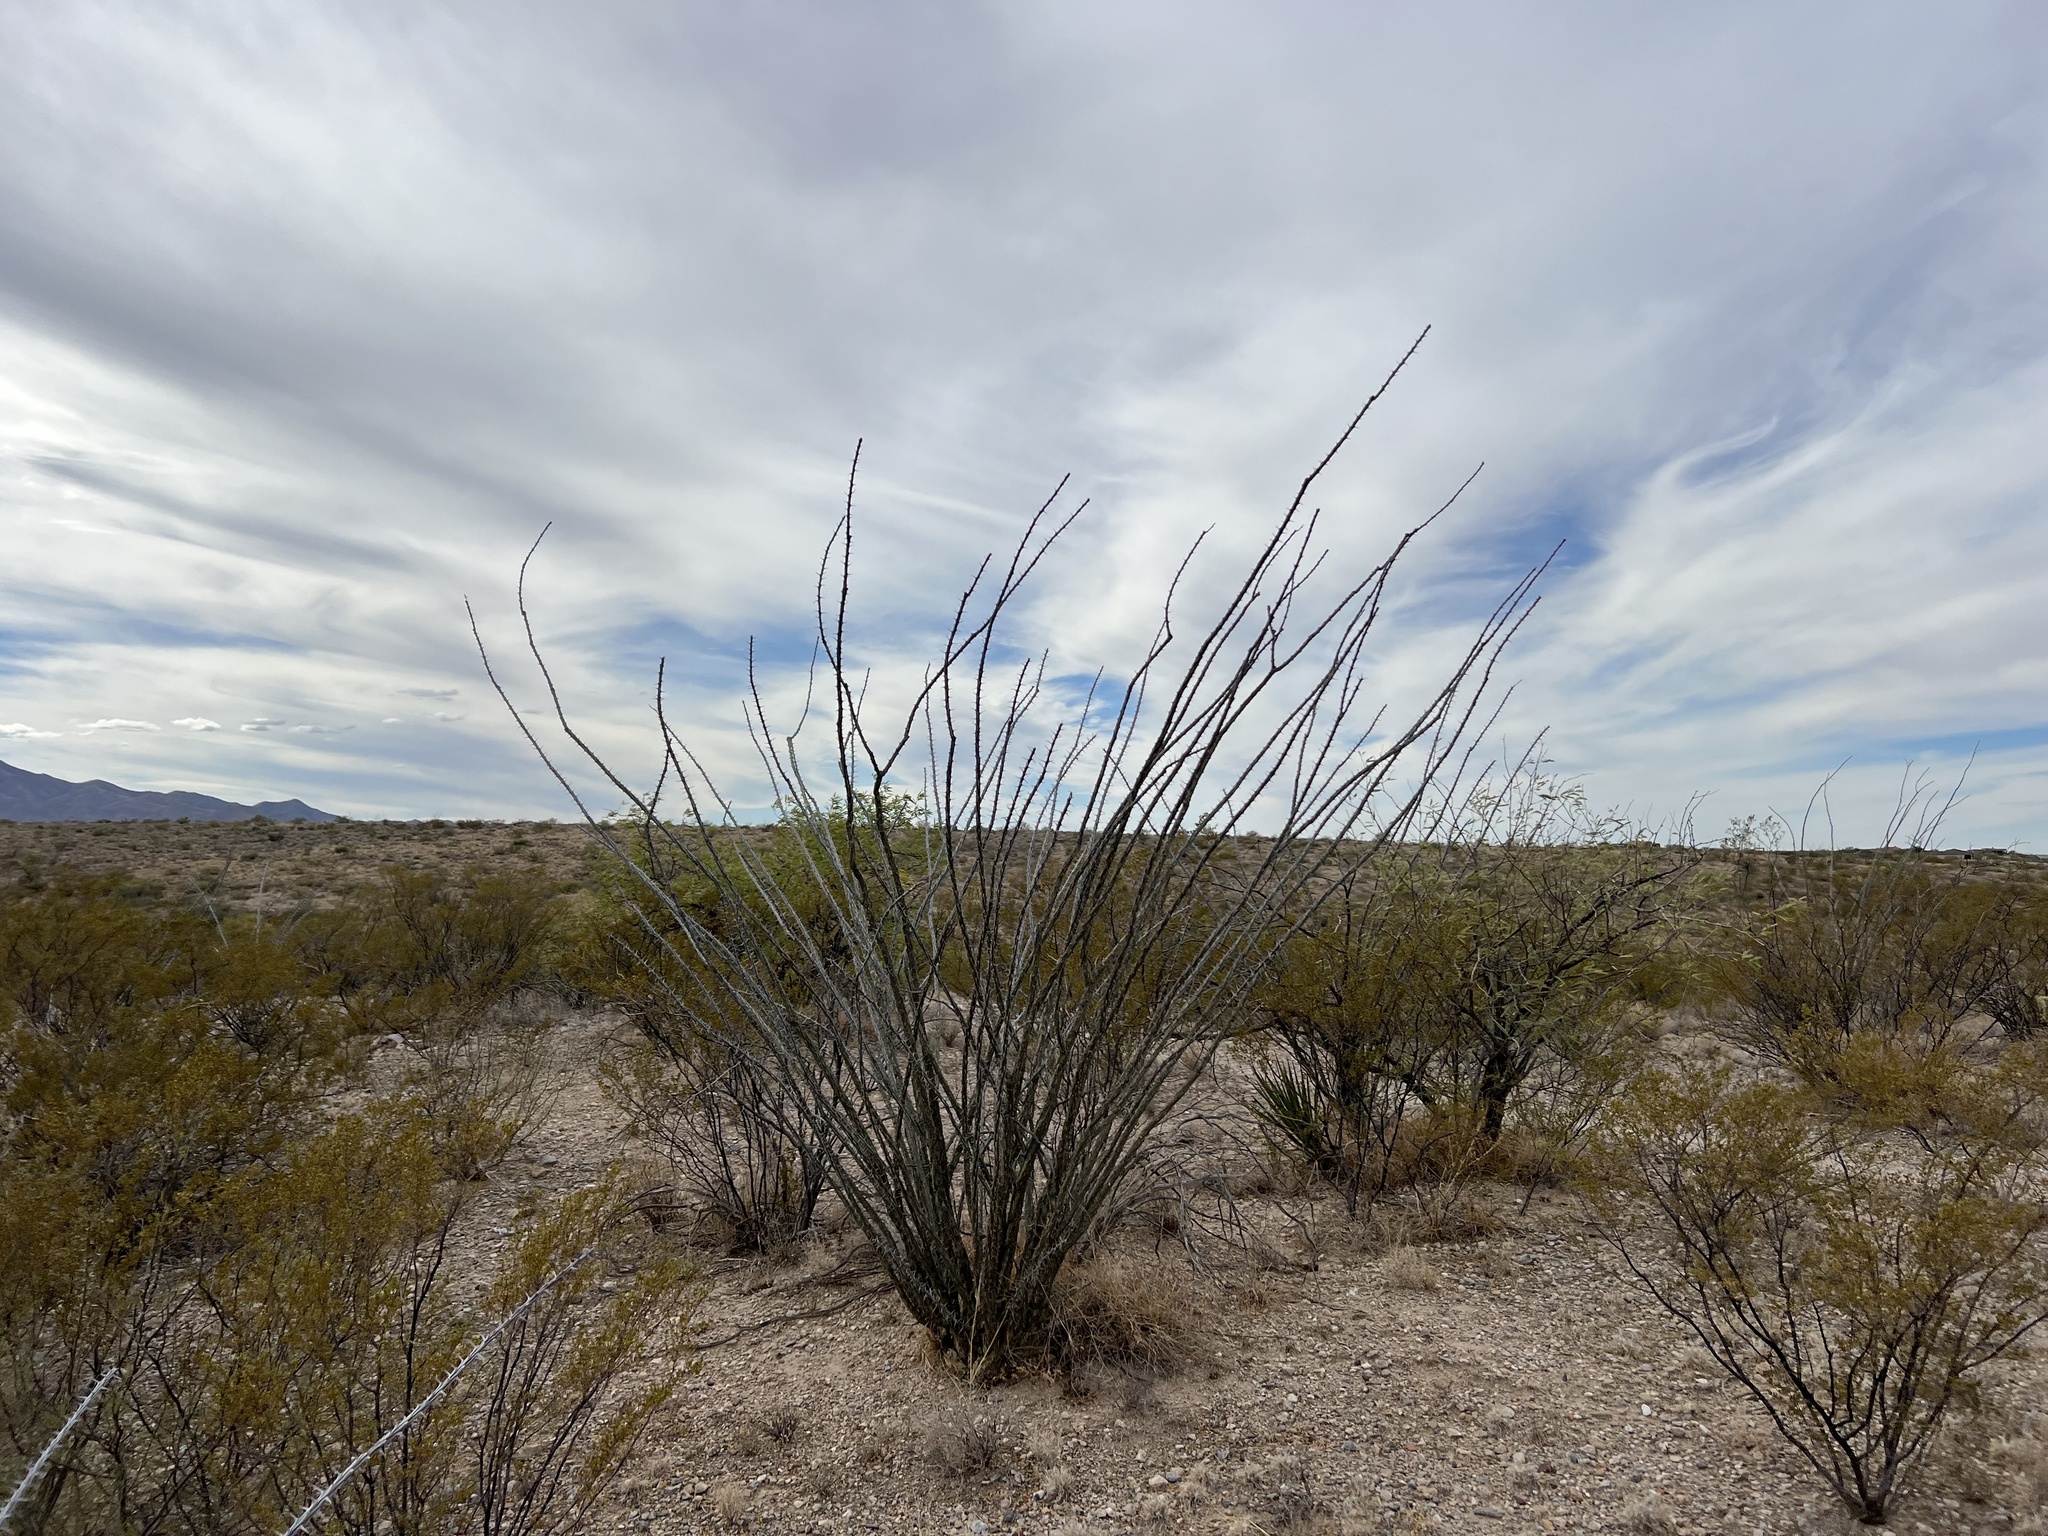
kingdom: Plantae
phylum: Tracheophyta
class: Magnoliopsida
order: Ericales
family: Fouquieriaceae
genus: Fouquieria
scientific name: Fouquieria splendens
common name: Vine-cactus
